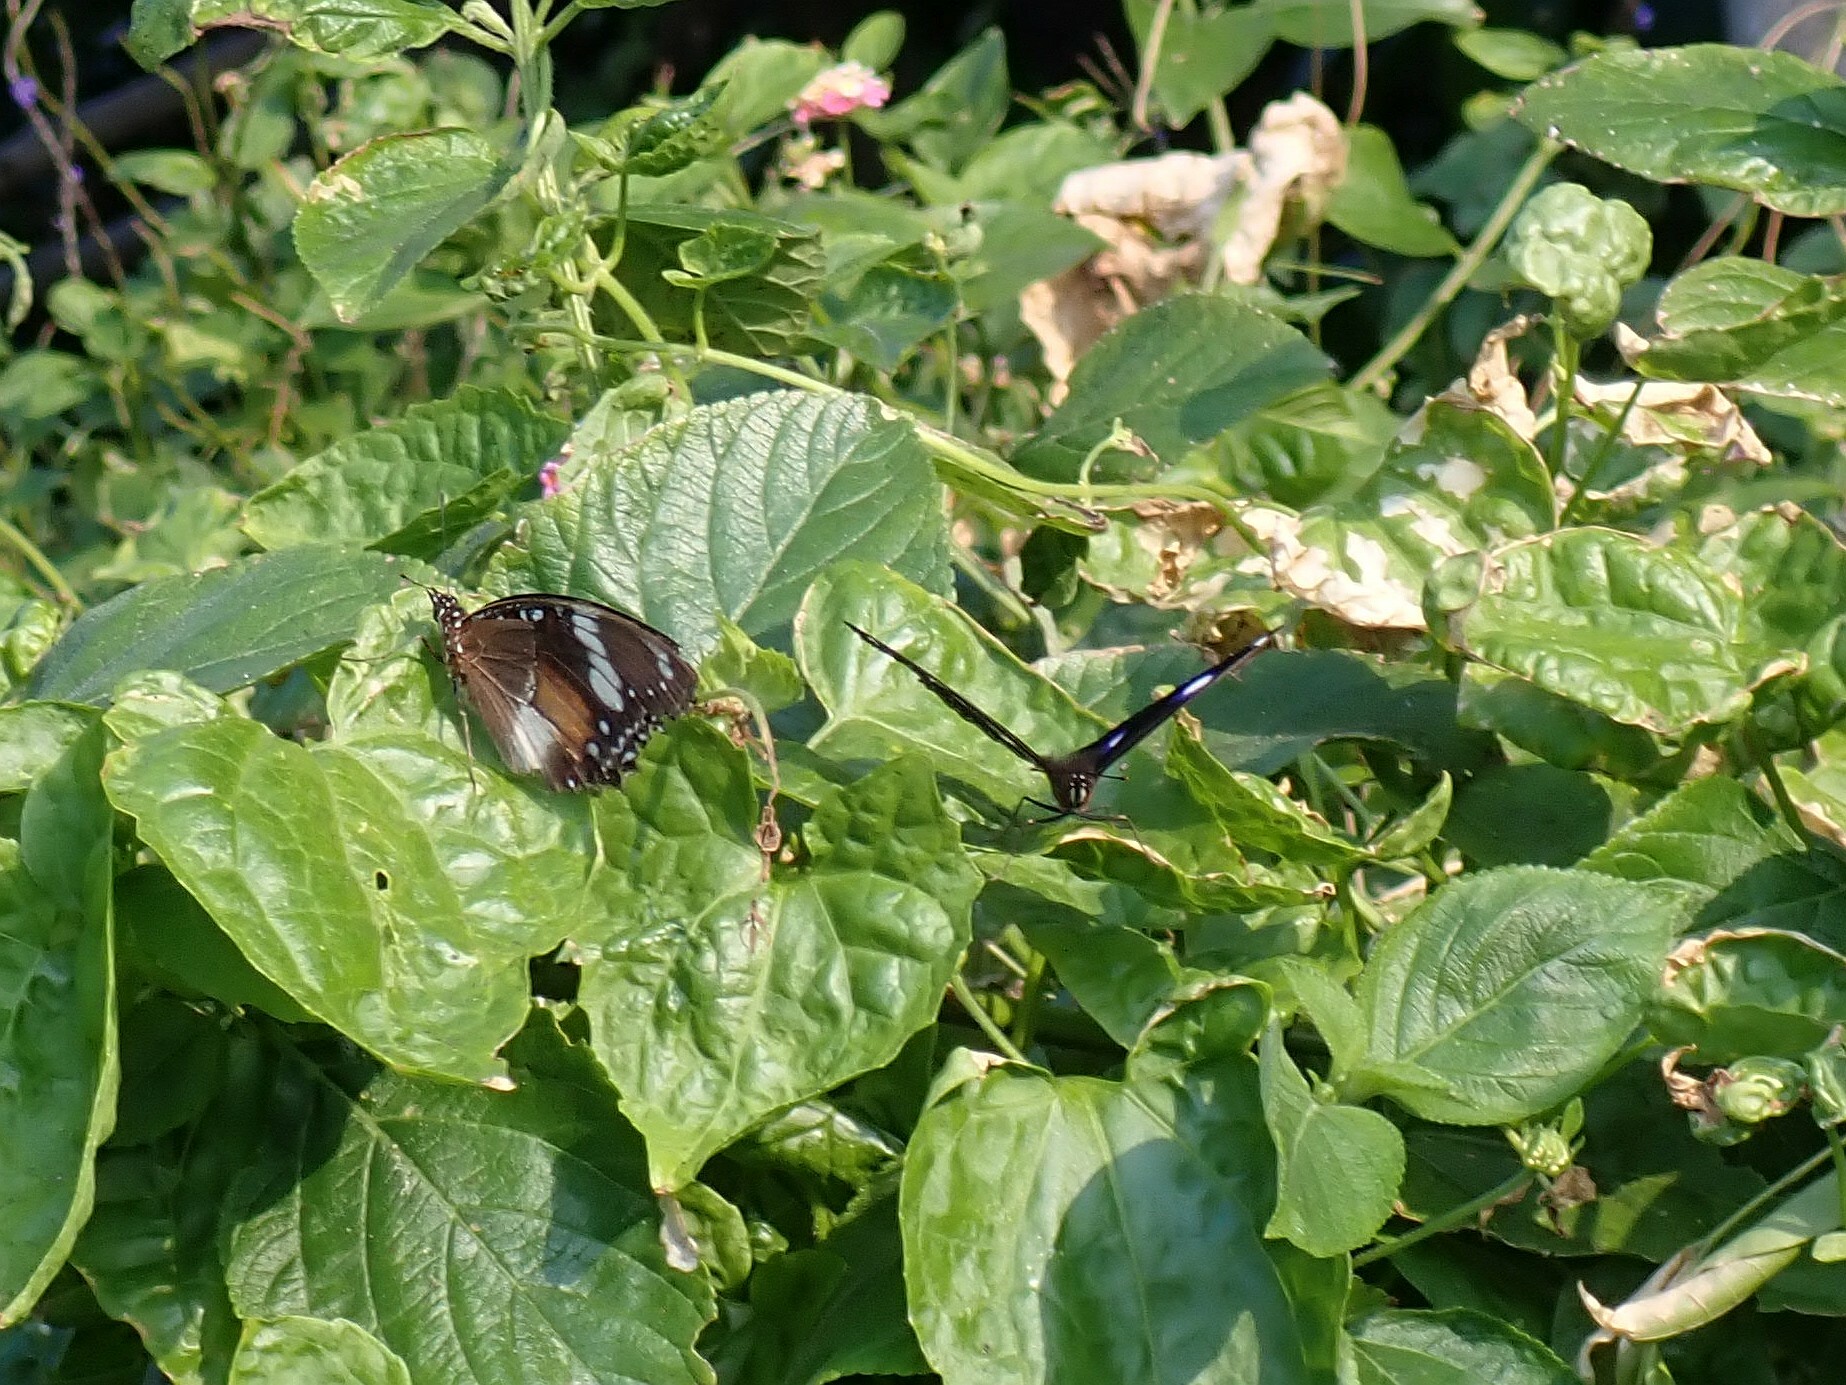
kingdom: Animalia
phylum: Arthropoda
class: Insecta
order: Lepidoptera
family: Nymphalidae
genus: Hypolimnas
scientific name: Hypolimnas bolina
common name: Great eggfly
